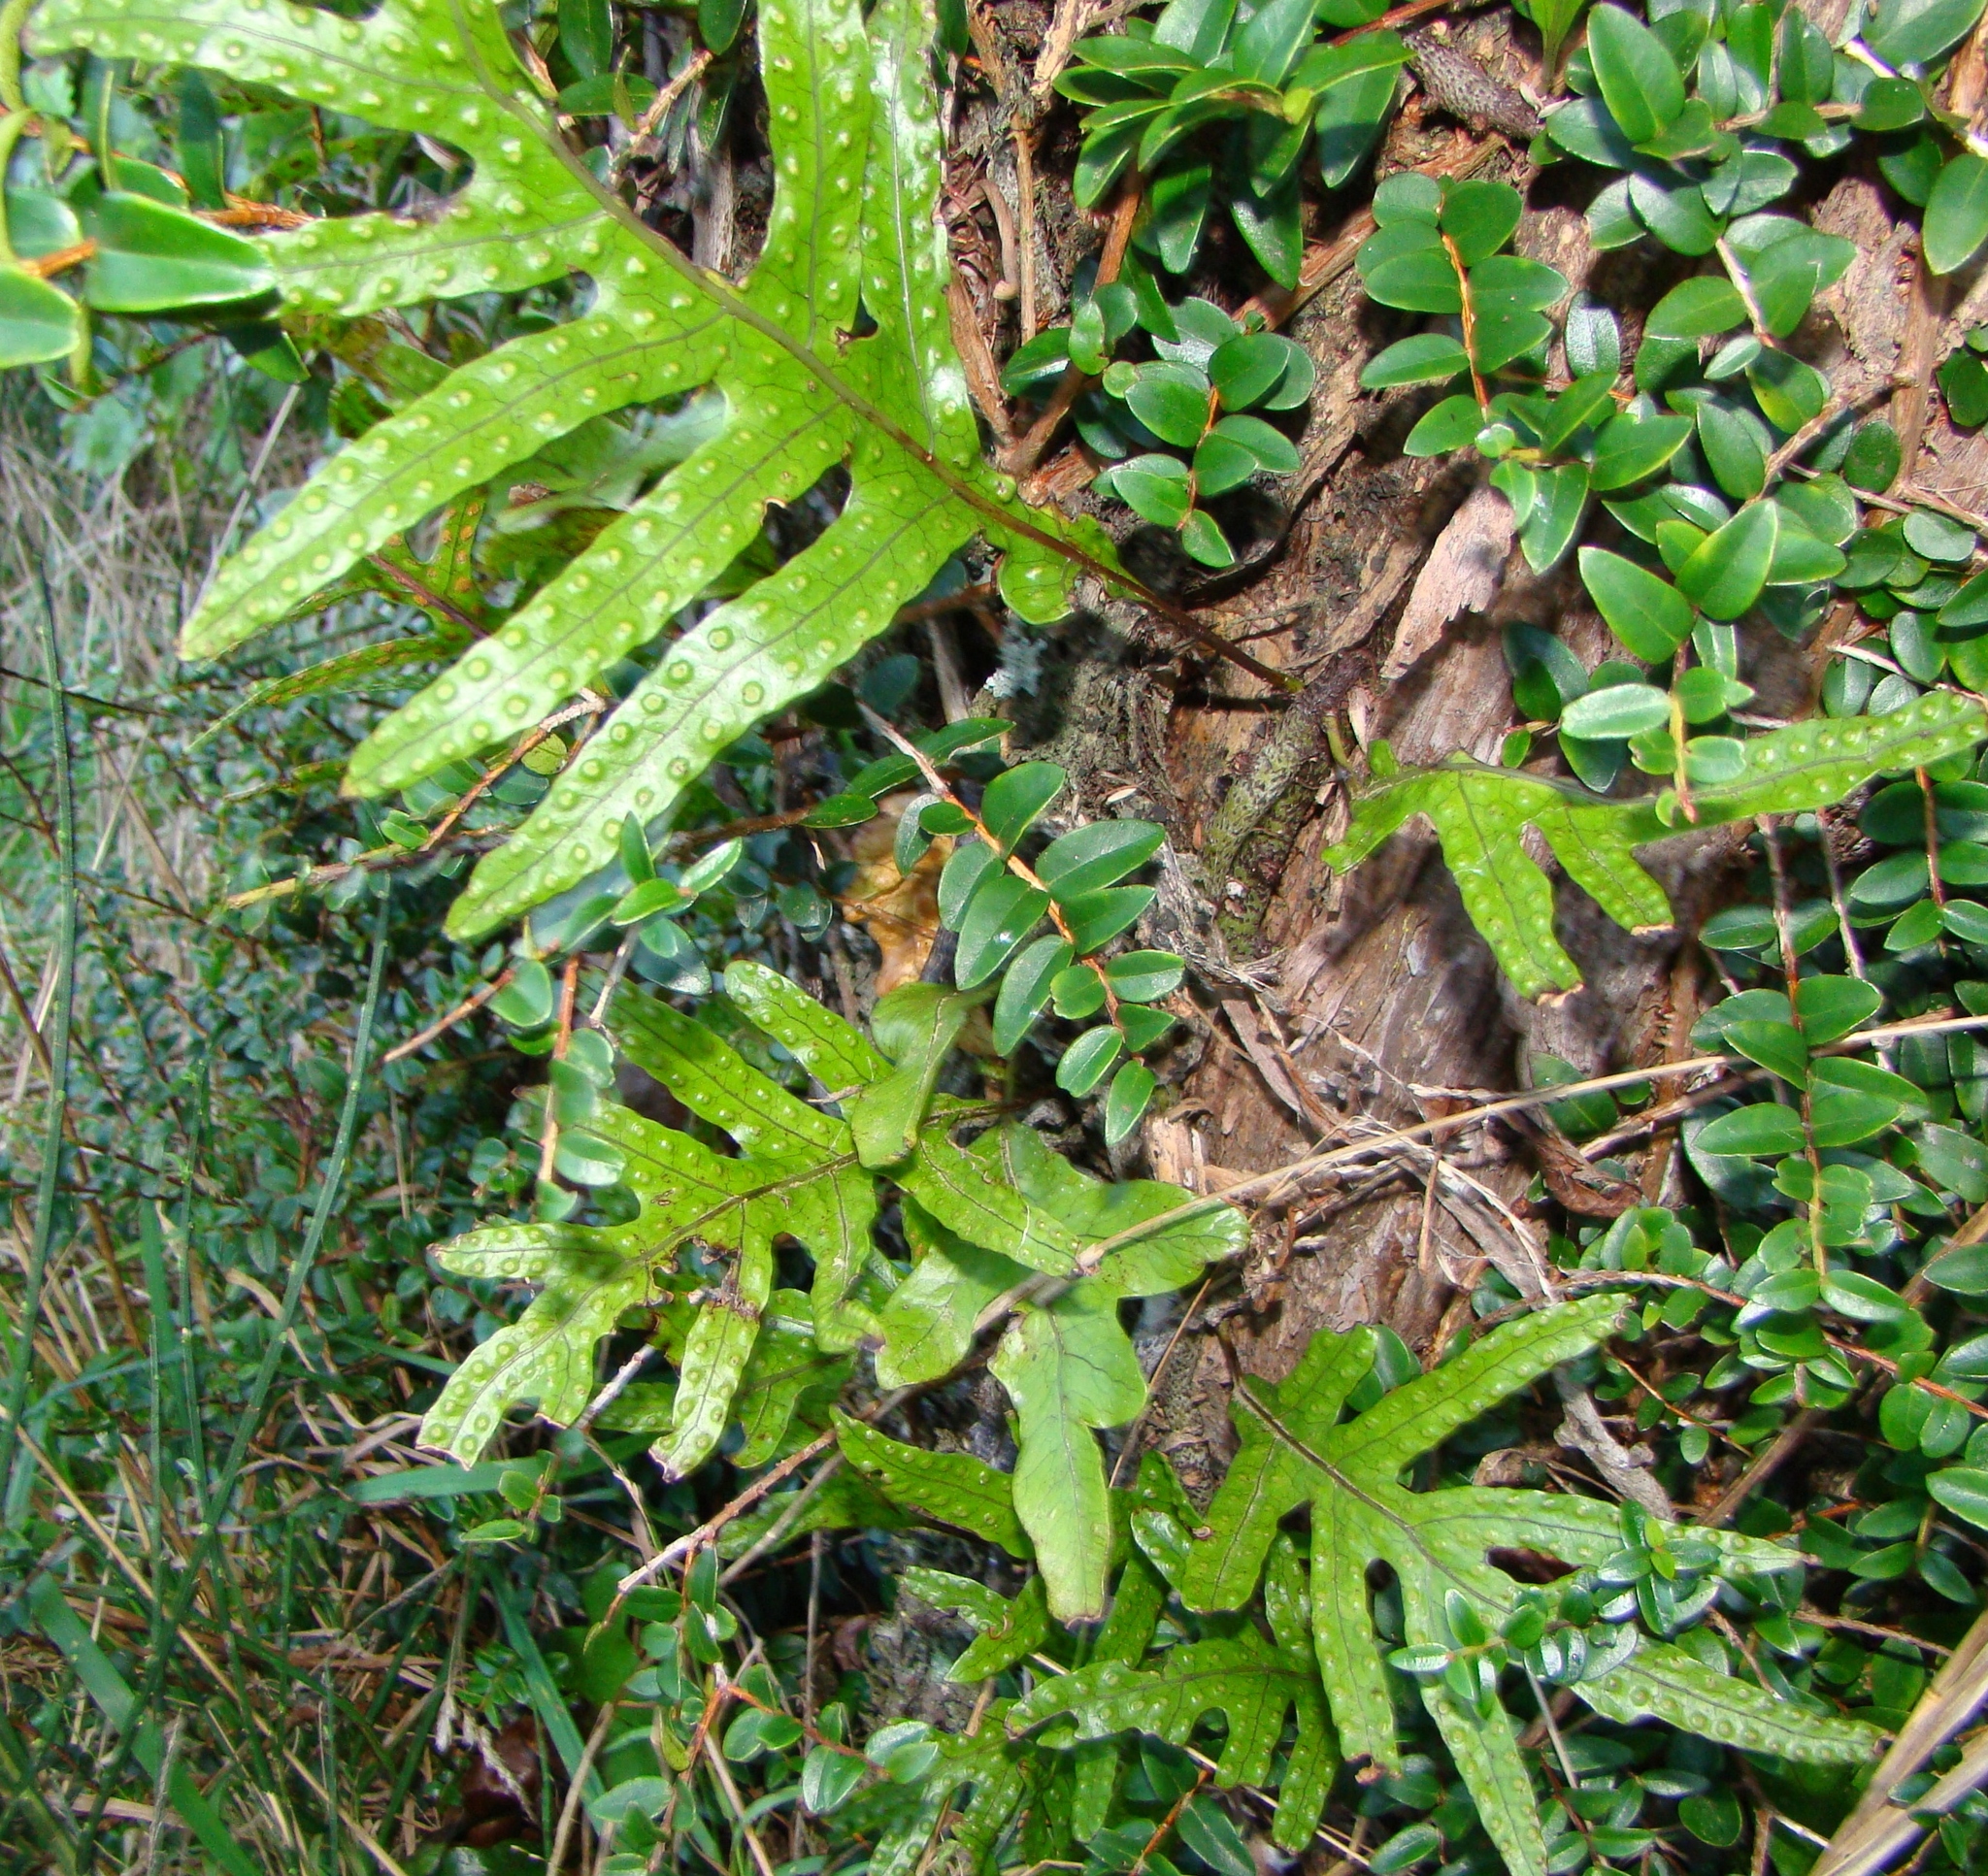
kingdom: Plantae
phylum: Tracheophyta
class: Polypodiopsida
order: Polypodiales
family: Polypodiaceae
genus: Lecanopteris
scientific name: Lecanopteris pustulata
